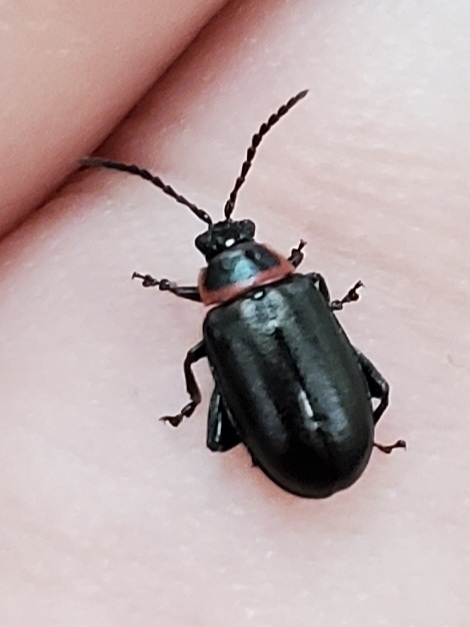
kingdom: Animalia
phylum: Arthropoda
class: Insecta
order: Coleoptera
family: Chrysomelidae
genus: Kuschelina
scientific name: Kuschelina vians
